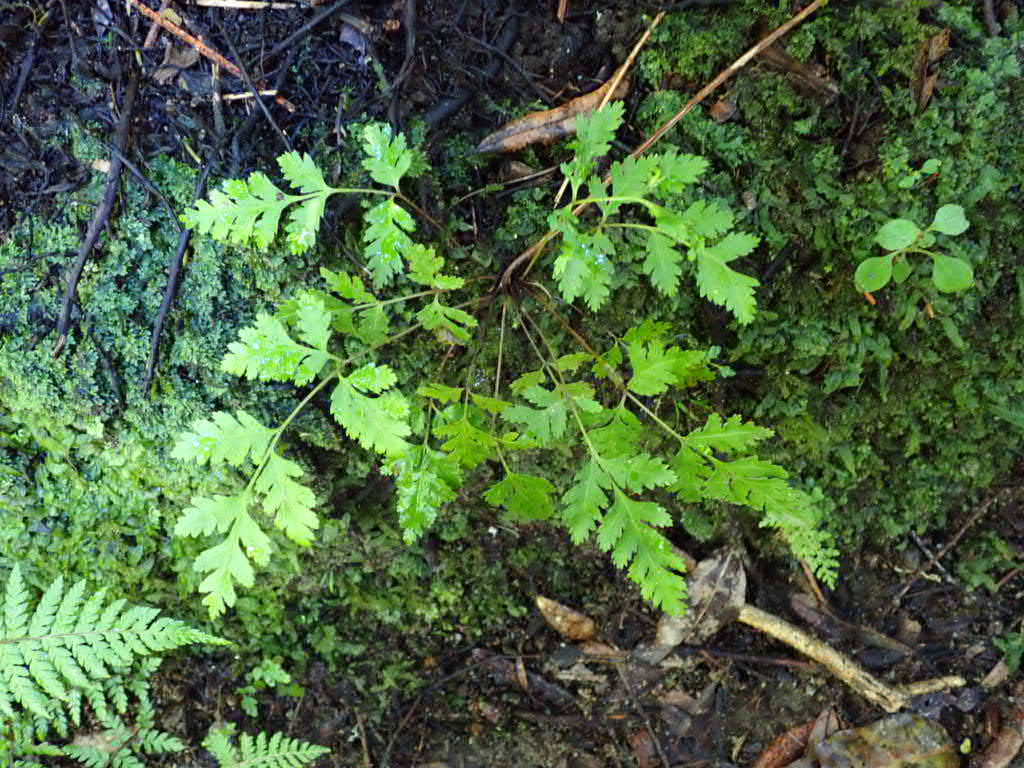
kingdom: Plantae
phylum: Tracheophyta
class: Polypodiopsida
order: Polypodiales
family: Pteridaceae
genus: Pteris
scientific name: Pteris macilenta
